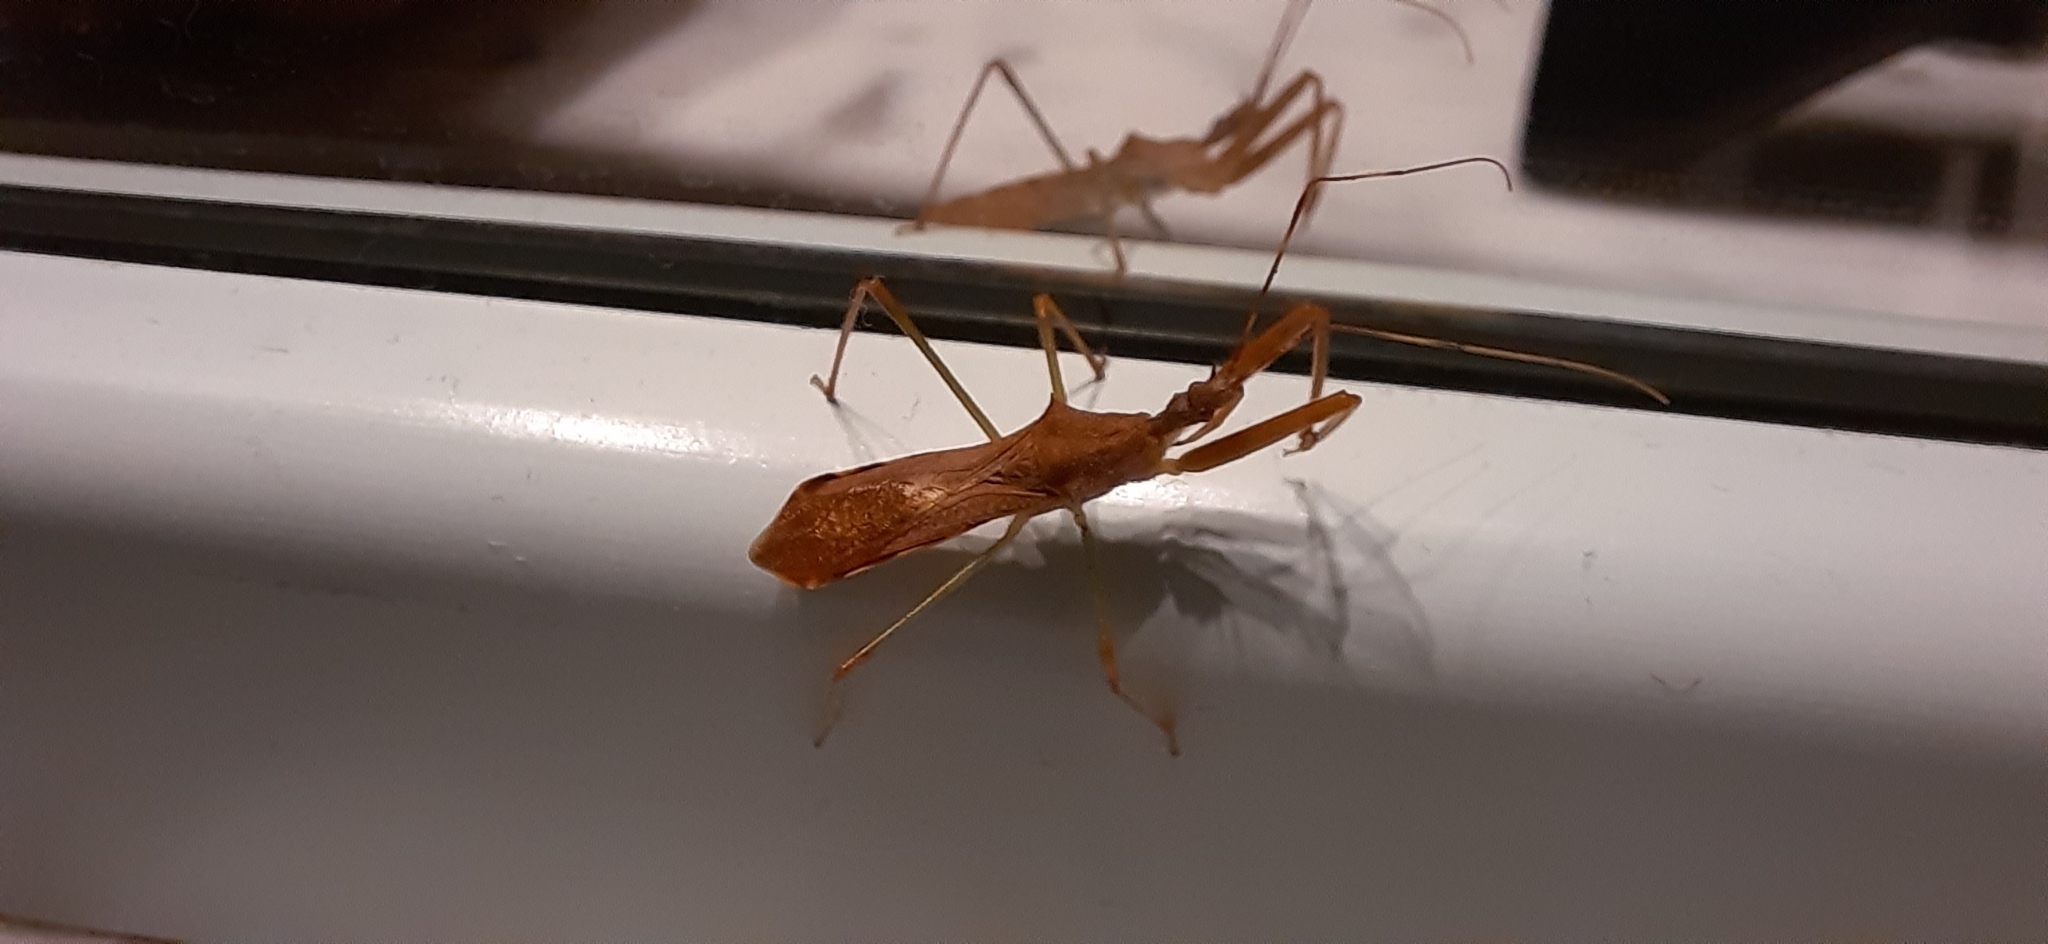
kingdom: Animalia
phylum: Arthropoda
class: Insecta
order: Hemiptera
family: Reduviidae
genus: Nagusta
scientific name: Nagusta goedelii
